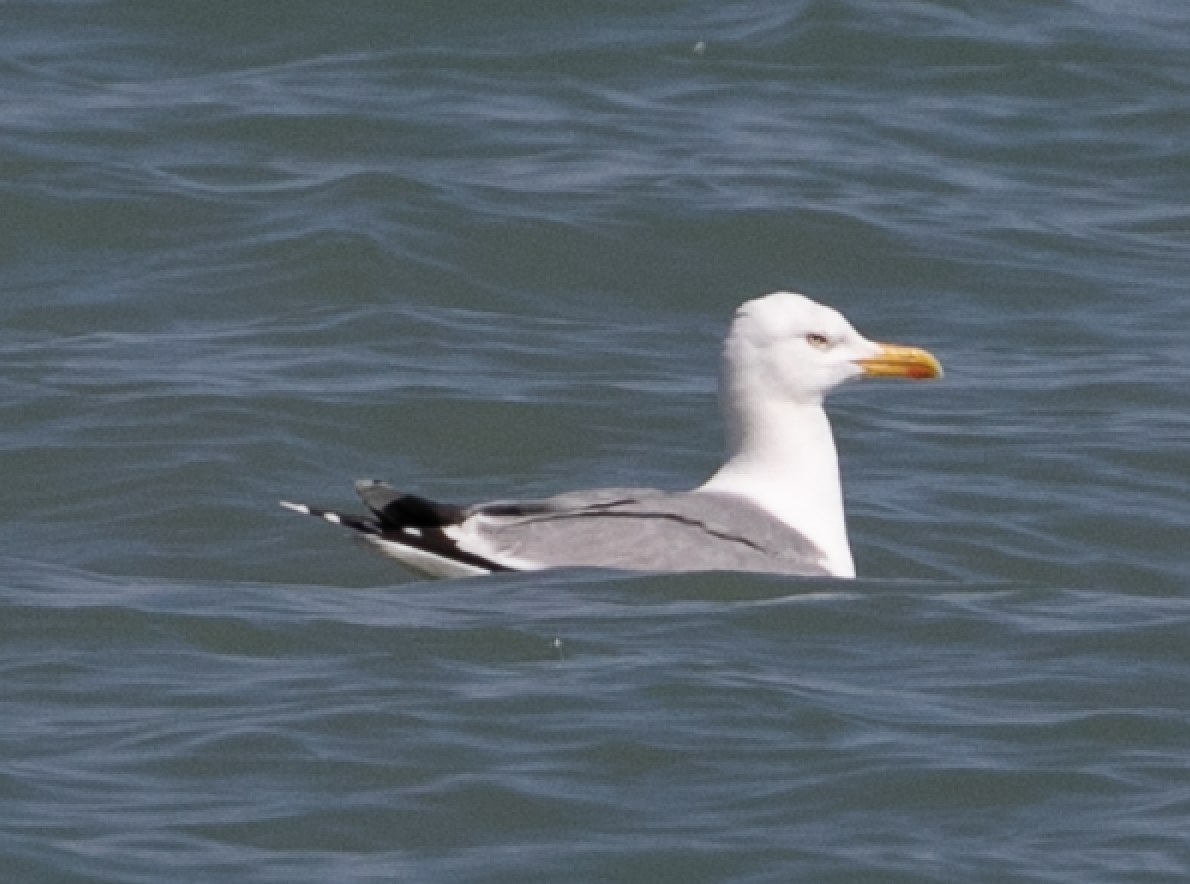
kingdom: Animalia
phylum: Chordata
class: Aves
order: Charadriiformes
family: Laridae
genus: Larus
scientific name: Larus michahellis
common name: Yellow-legged gull
